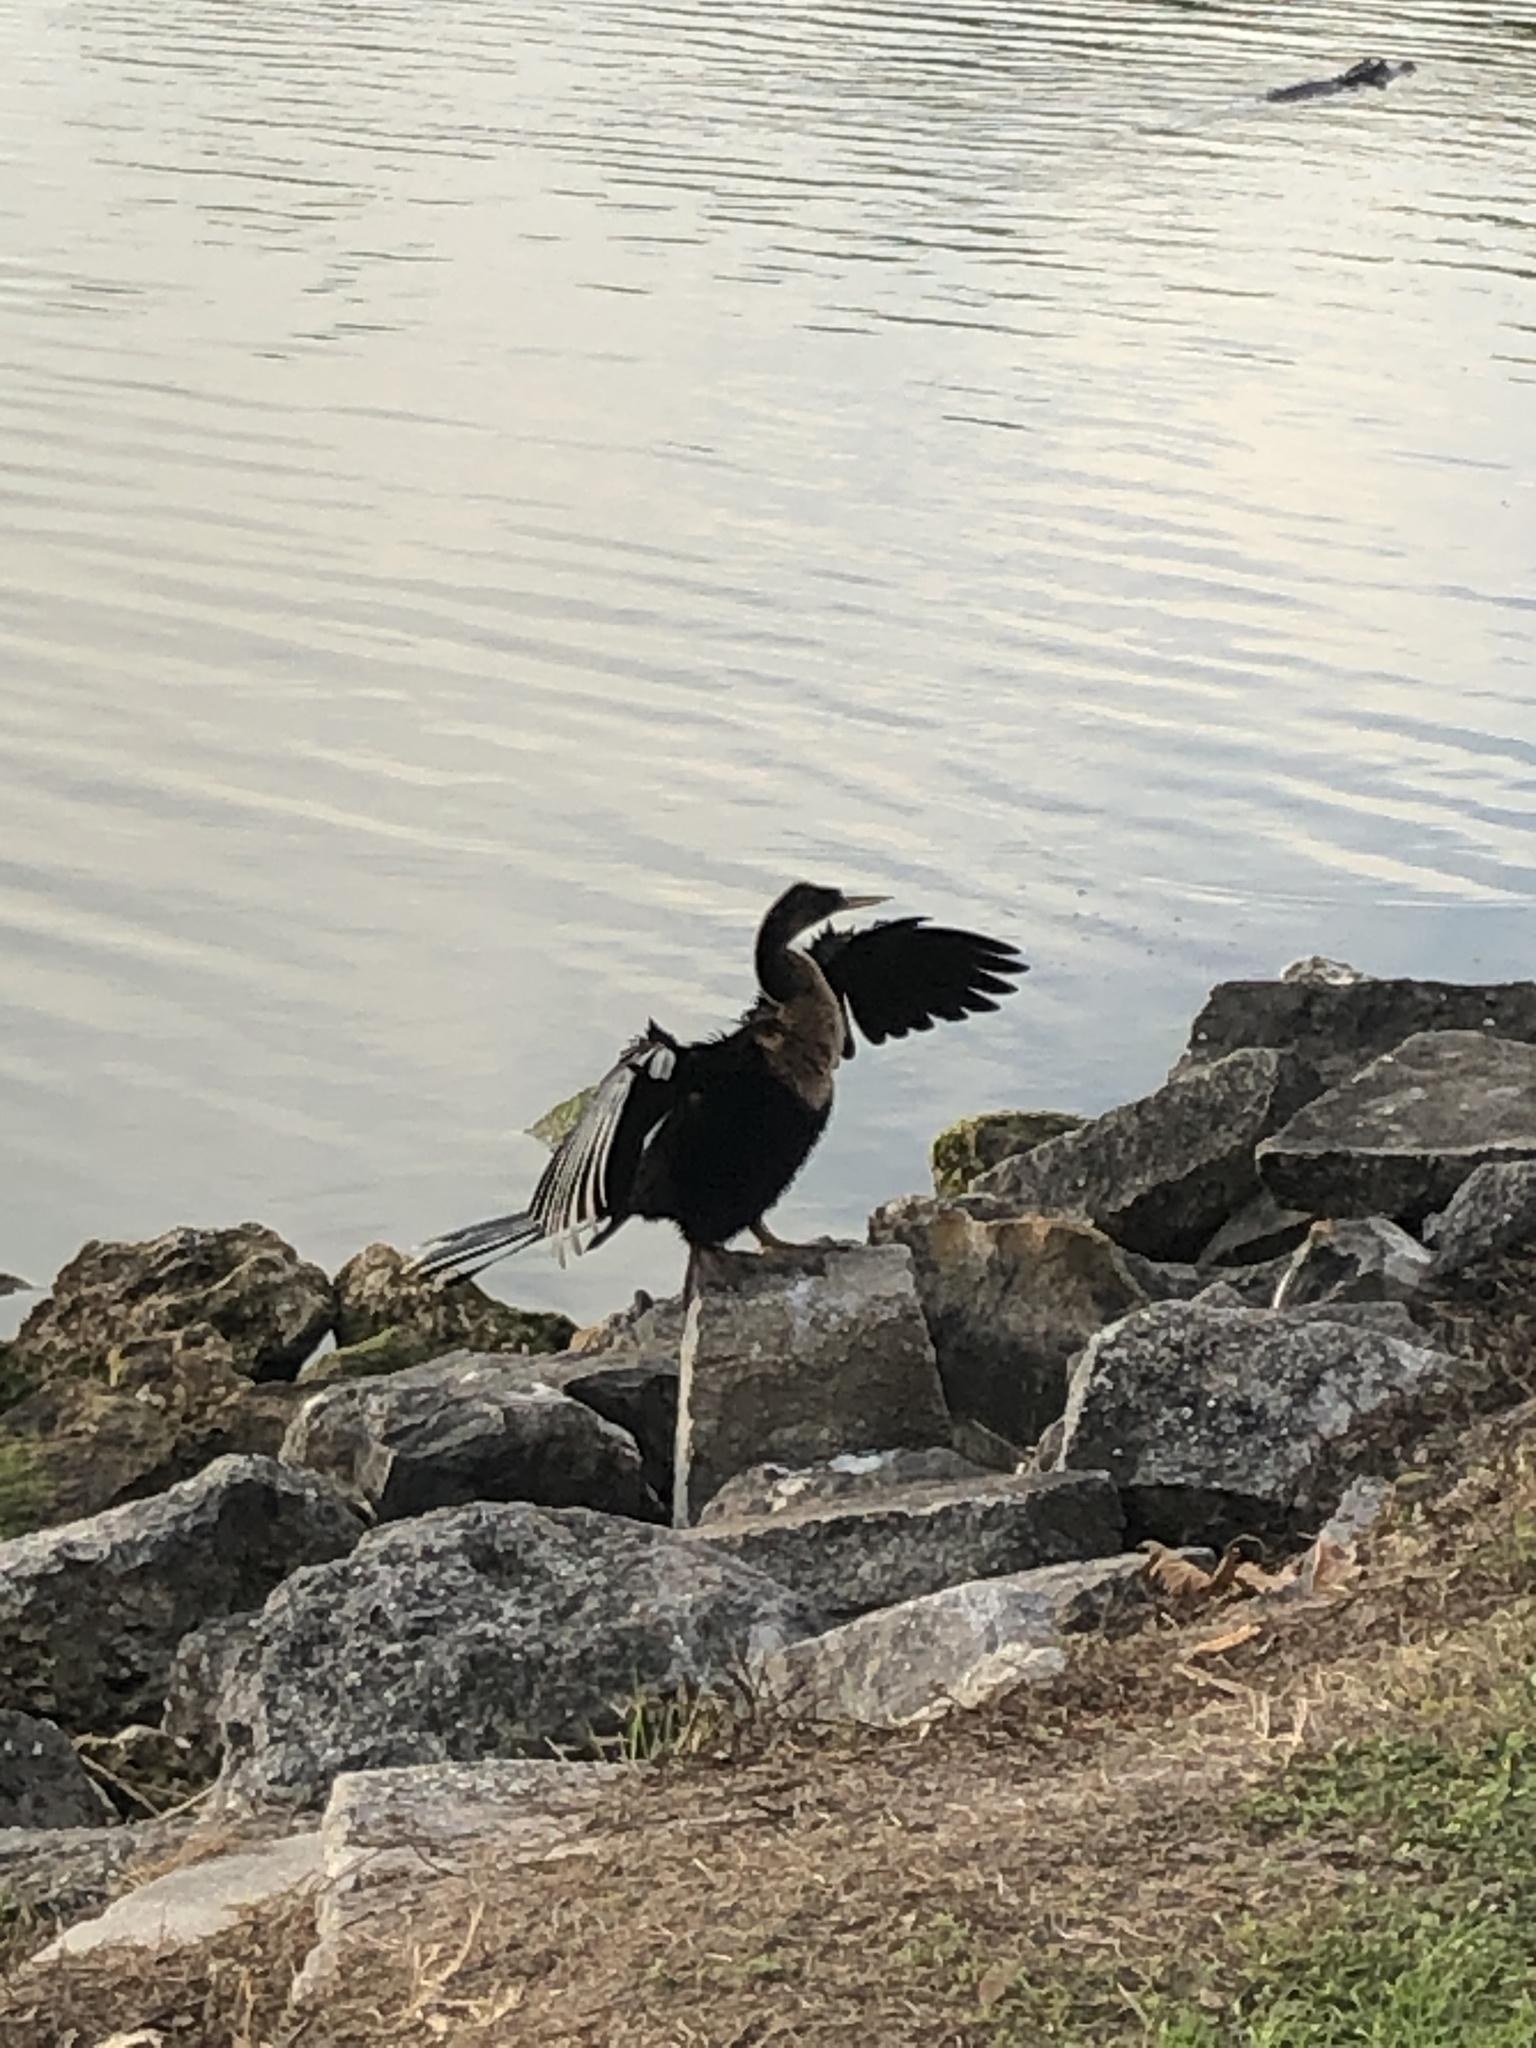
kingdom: Animalia
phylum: Chordata
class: Aves
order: Suliformes
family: Anhingidae
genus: Anhinga
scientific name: Anhinga anhinga
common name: Anhinga
